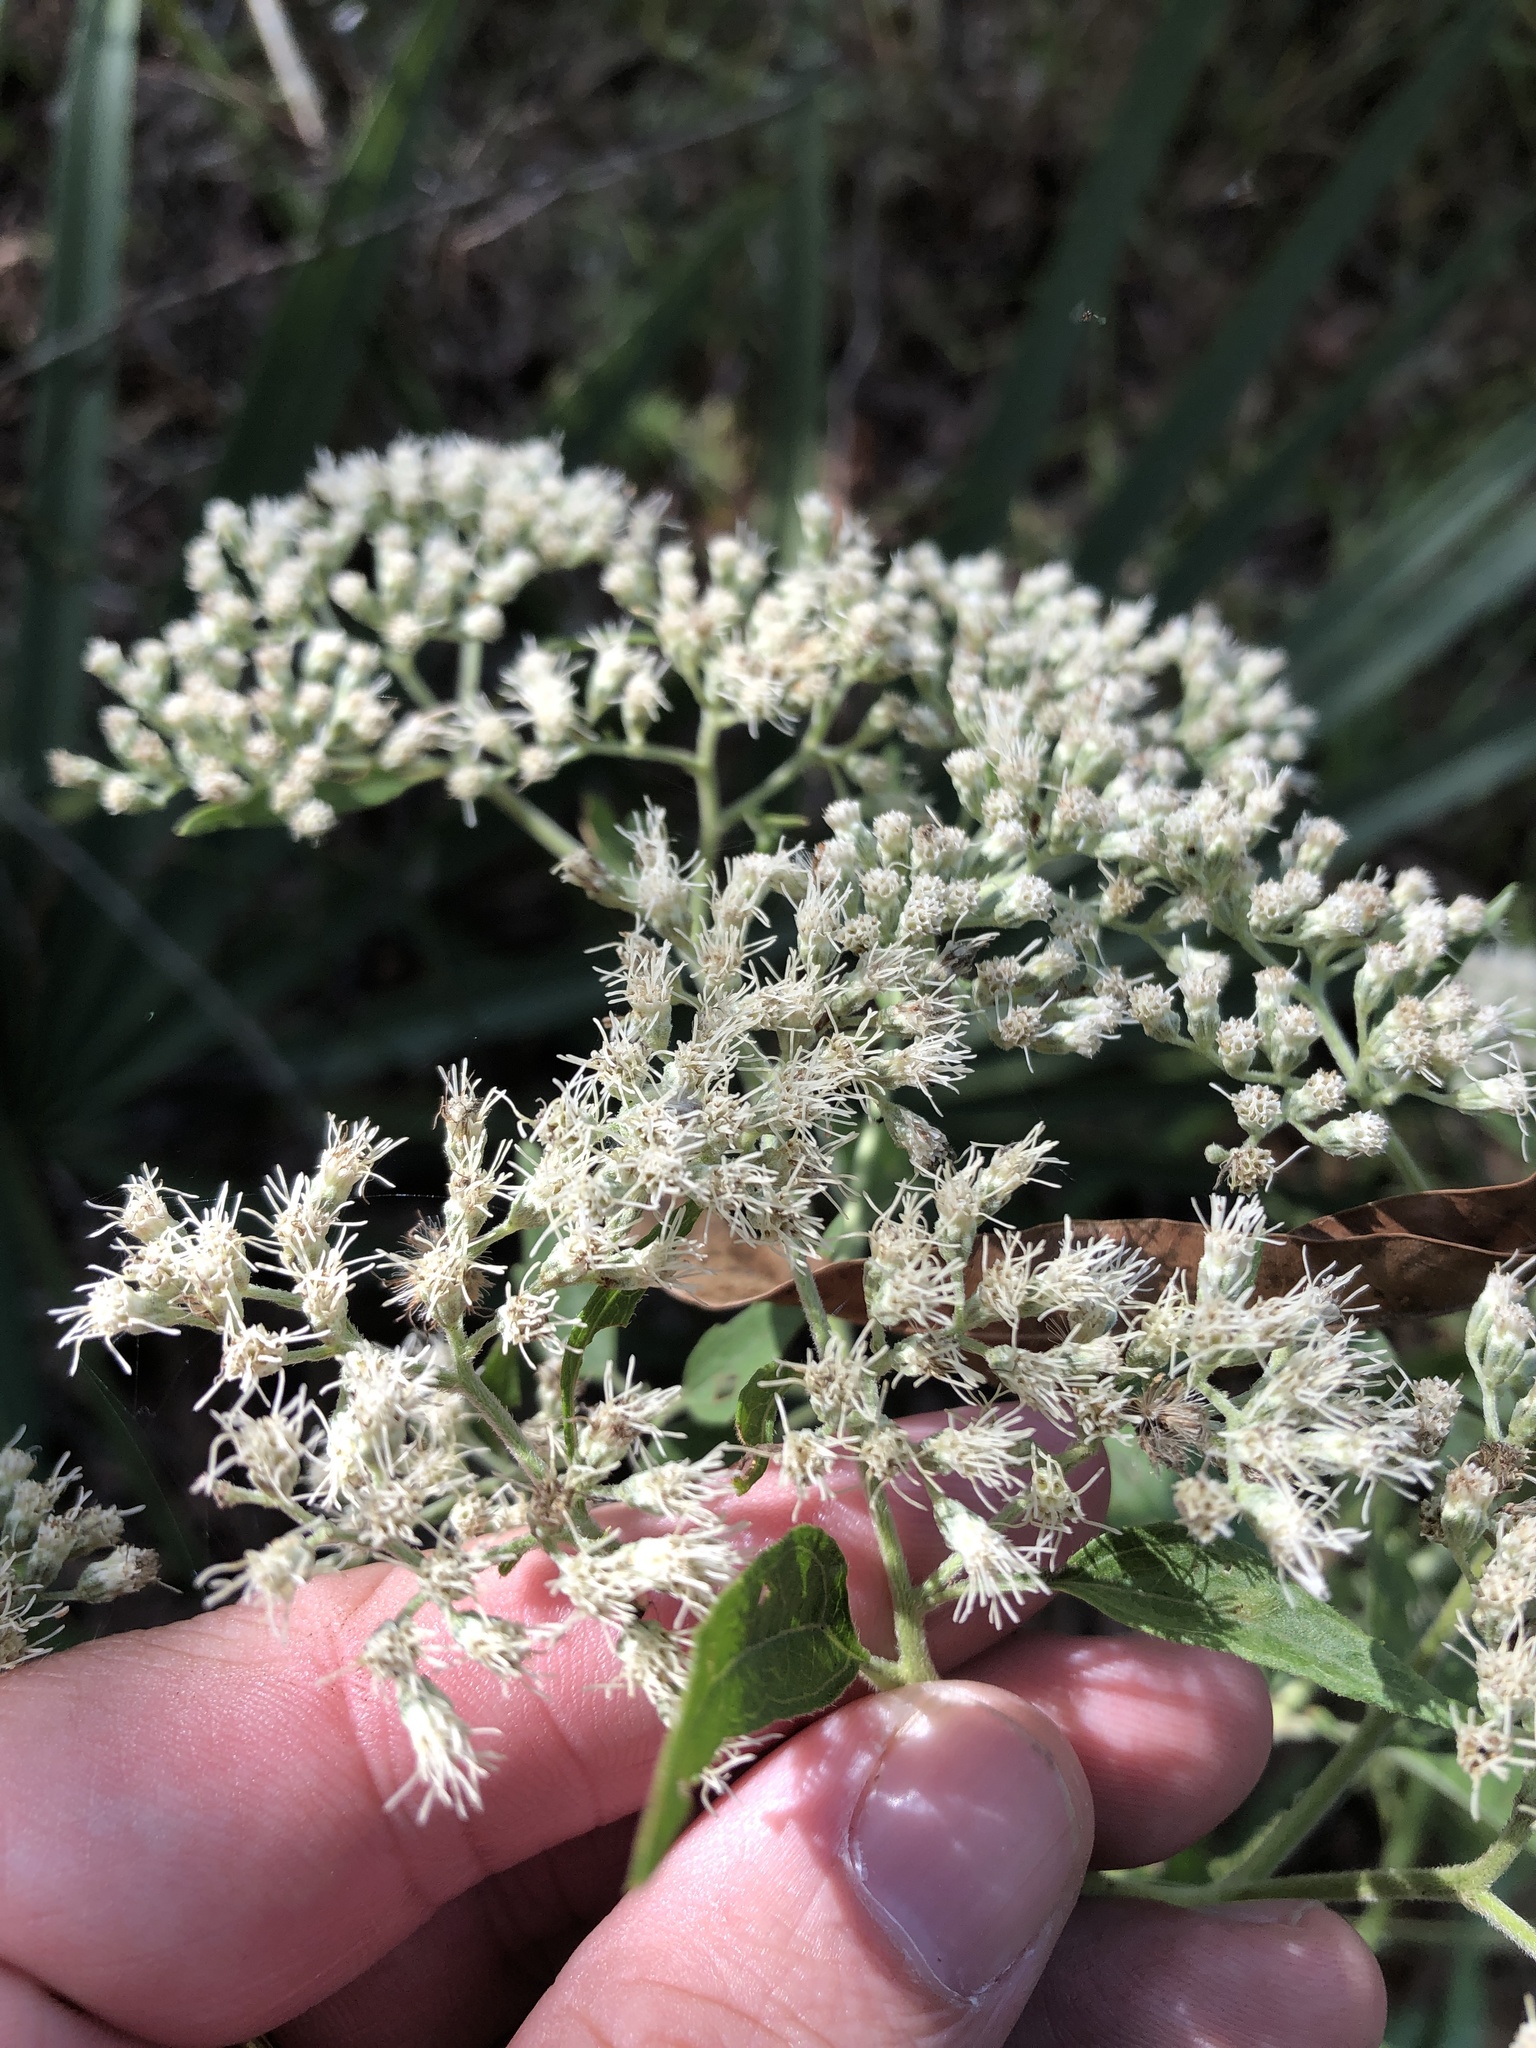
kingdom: Plantae
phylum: Tracheophyta
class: Magnoliopsida
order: Asterales
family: Asteraceae
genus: Eupatorium
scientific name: Eupatorium serotinum
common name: Late boneset
